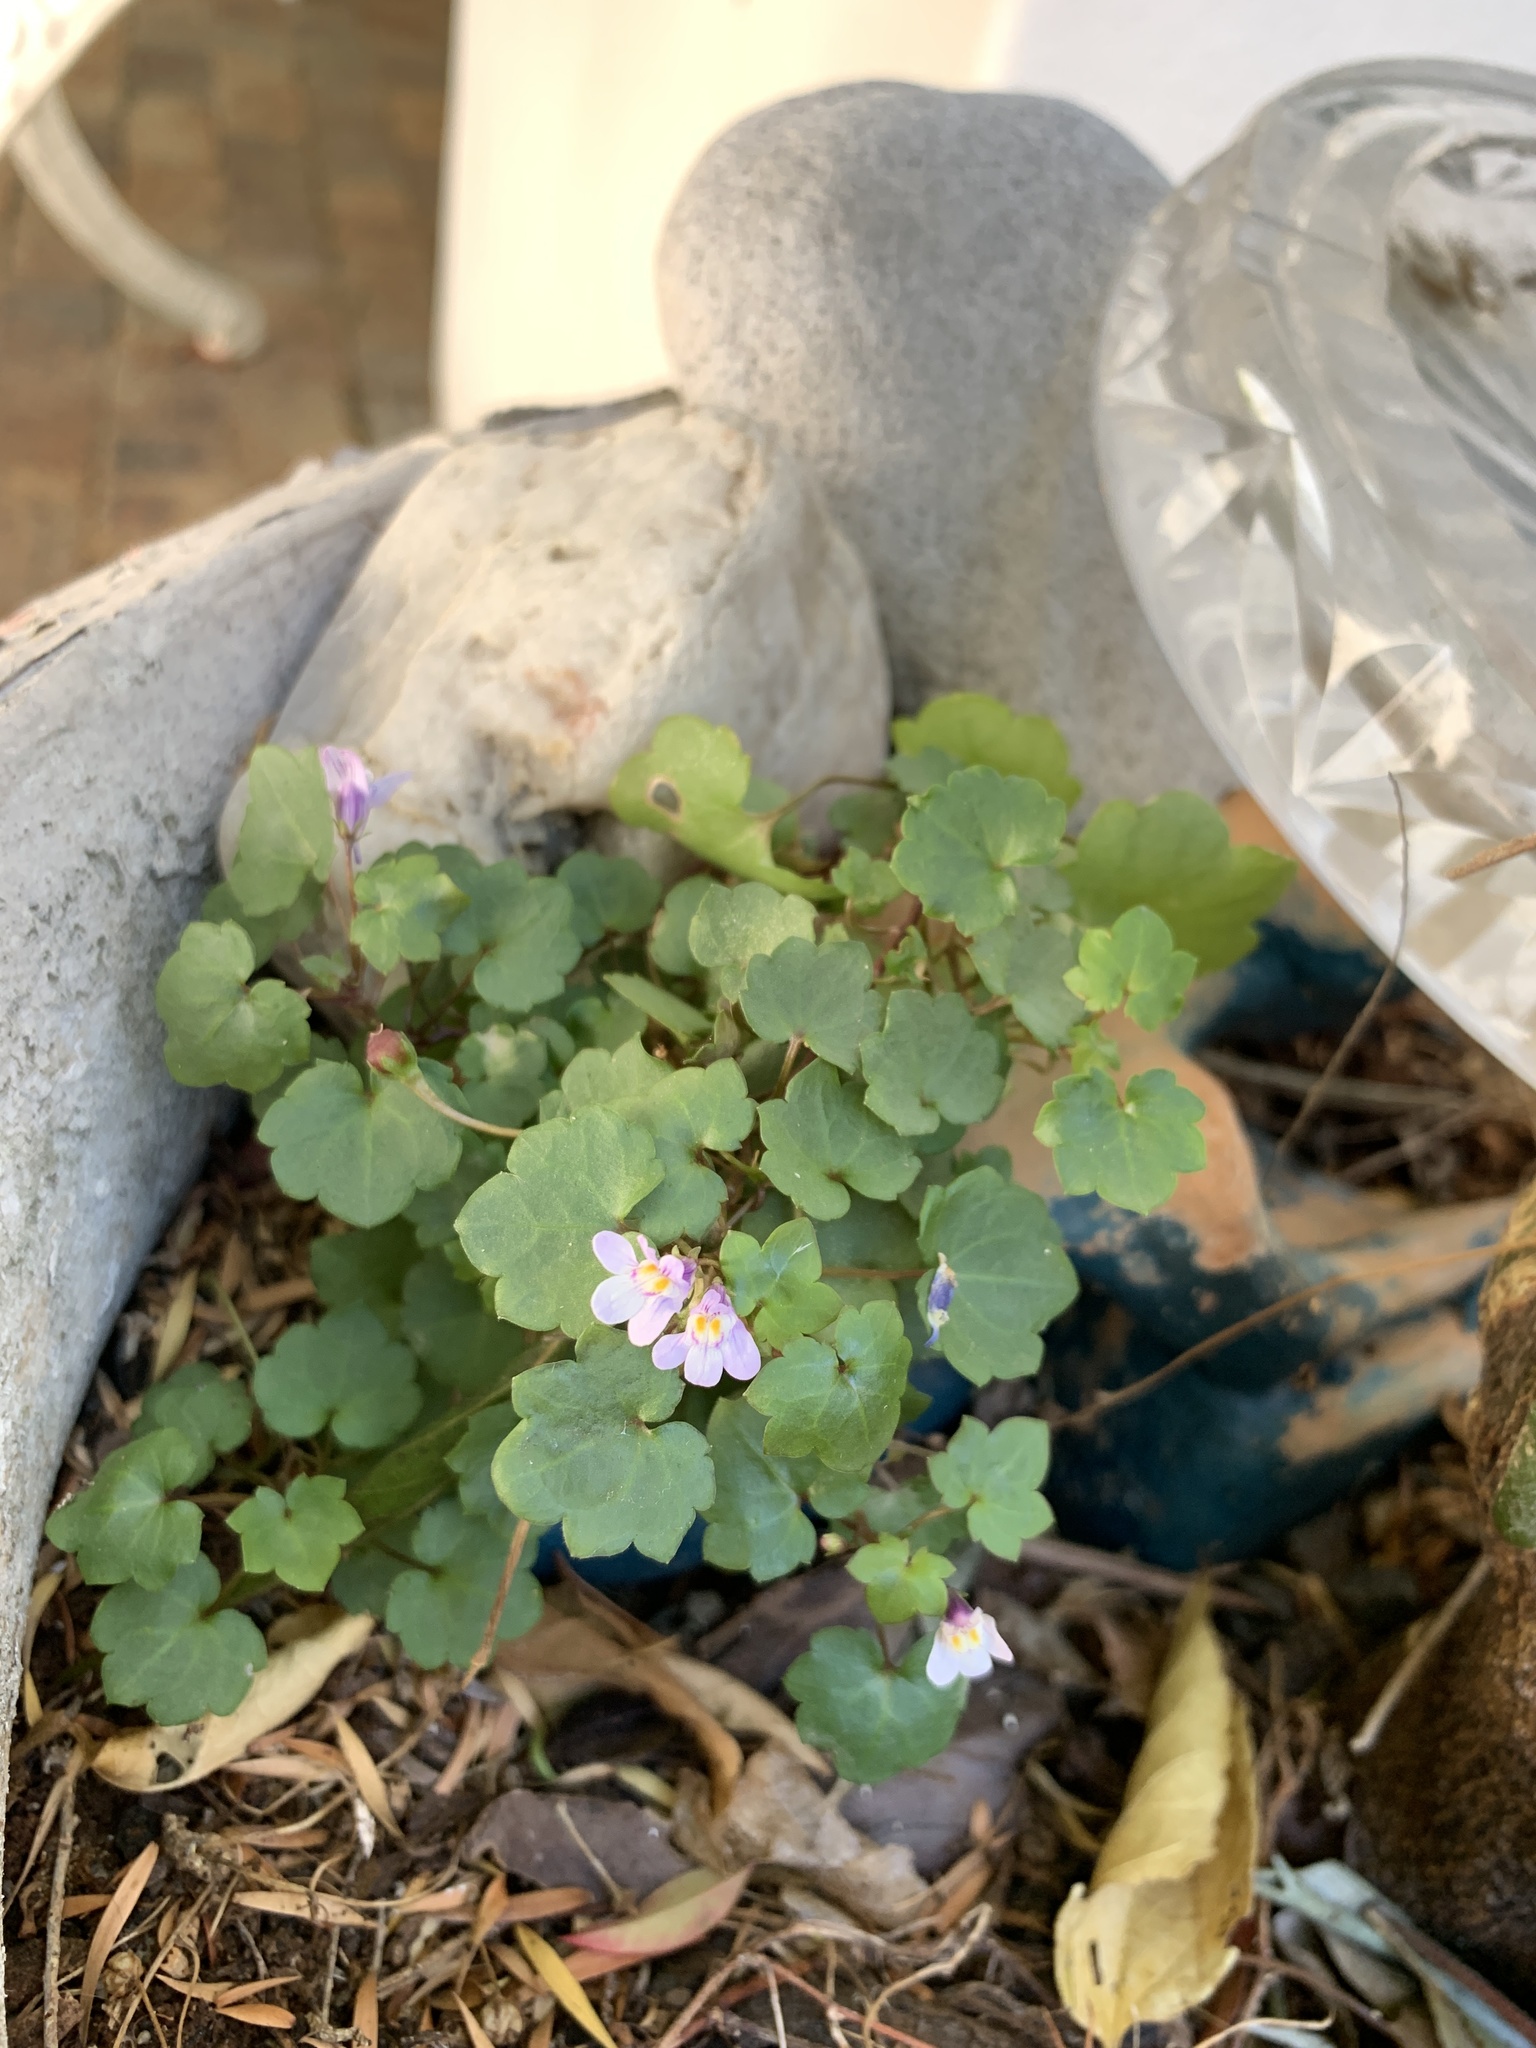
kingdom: Plantae
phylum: Tracheophyta
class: Magnoliopsida
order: Lamiales
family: Plantaginaceae
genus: Cymbalaria
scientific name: Cymbalaria muralis
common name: Ivy-leaved toadflax
